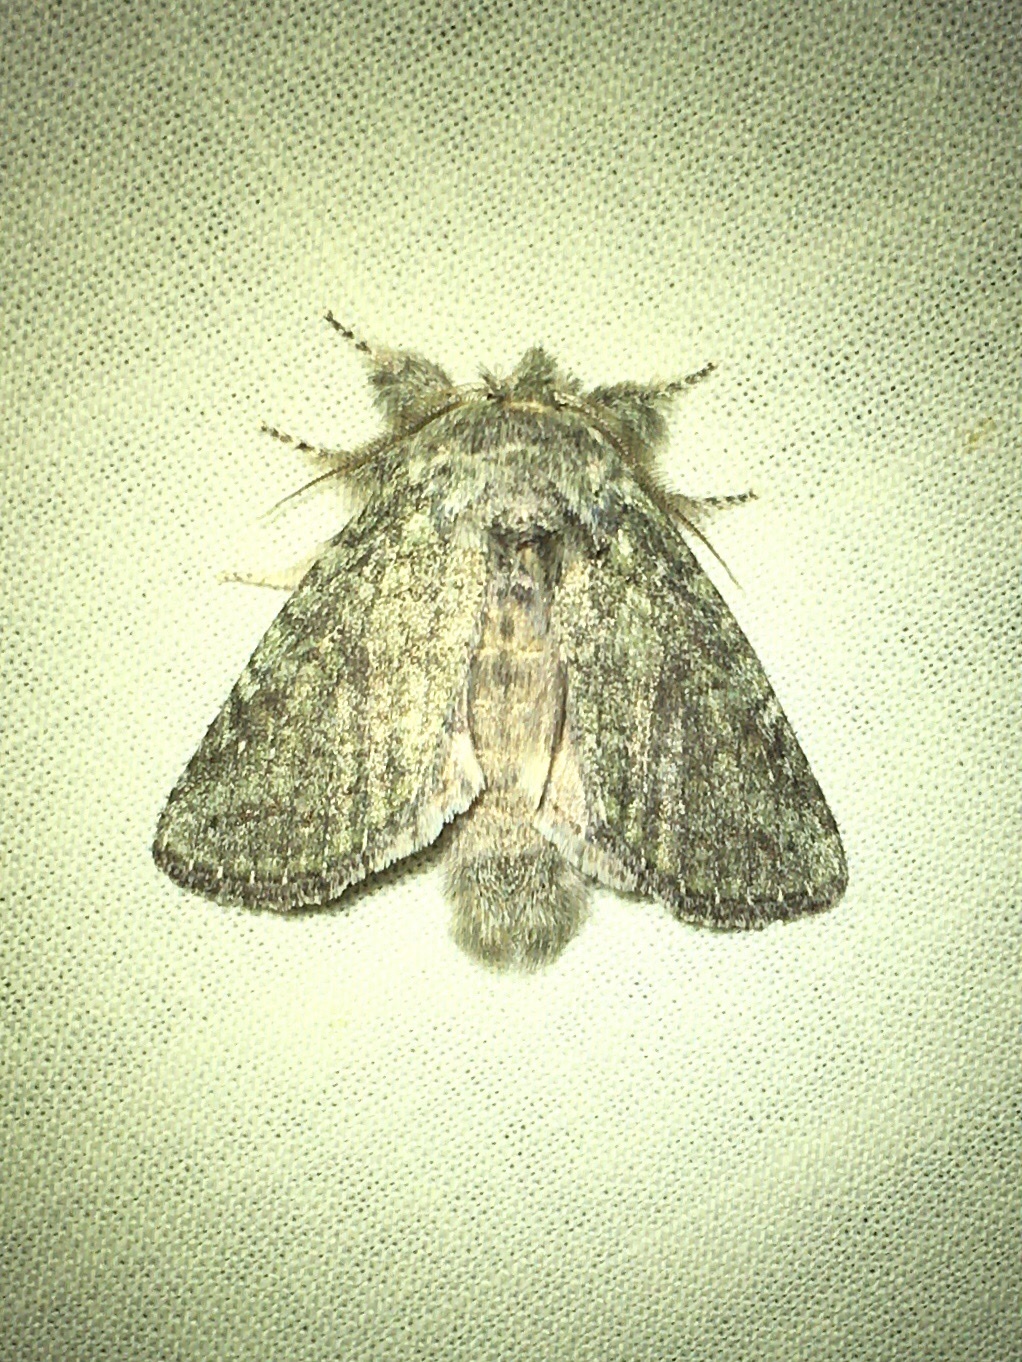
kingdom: Animalia
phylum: Arthropoda
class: Insecta
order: Lepidoptera
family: Notodontidae
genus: Disphragis
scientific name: Disphragis Cecrita guttivitta
